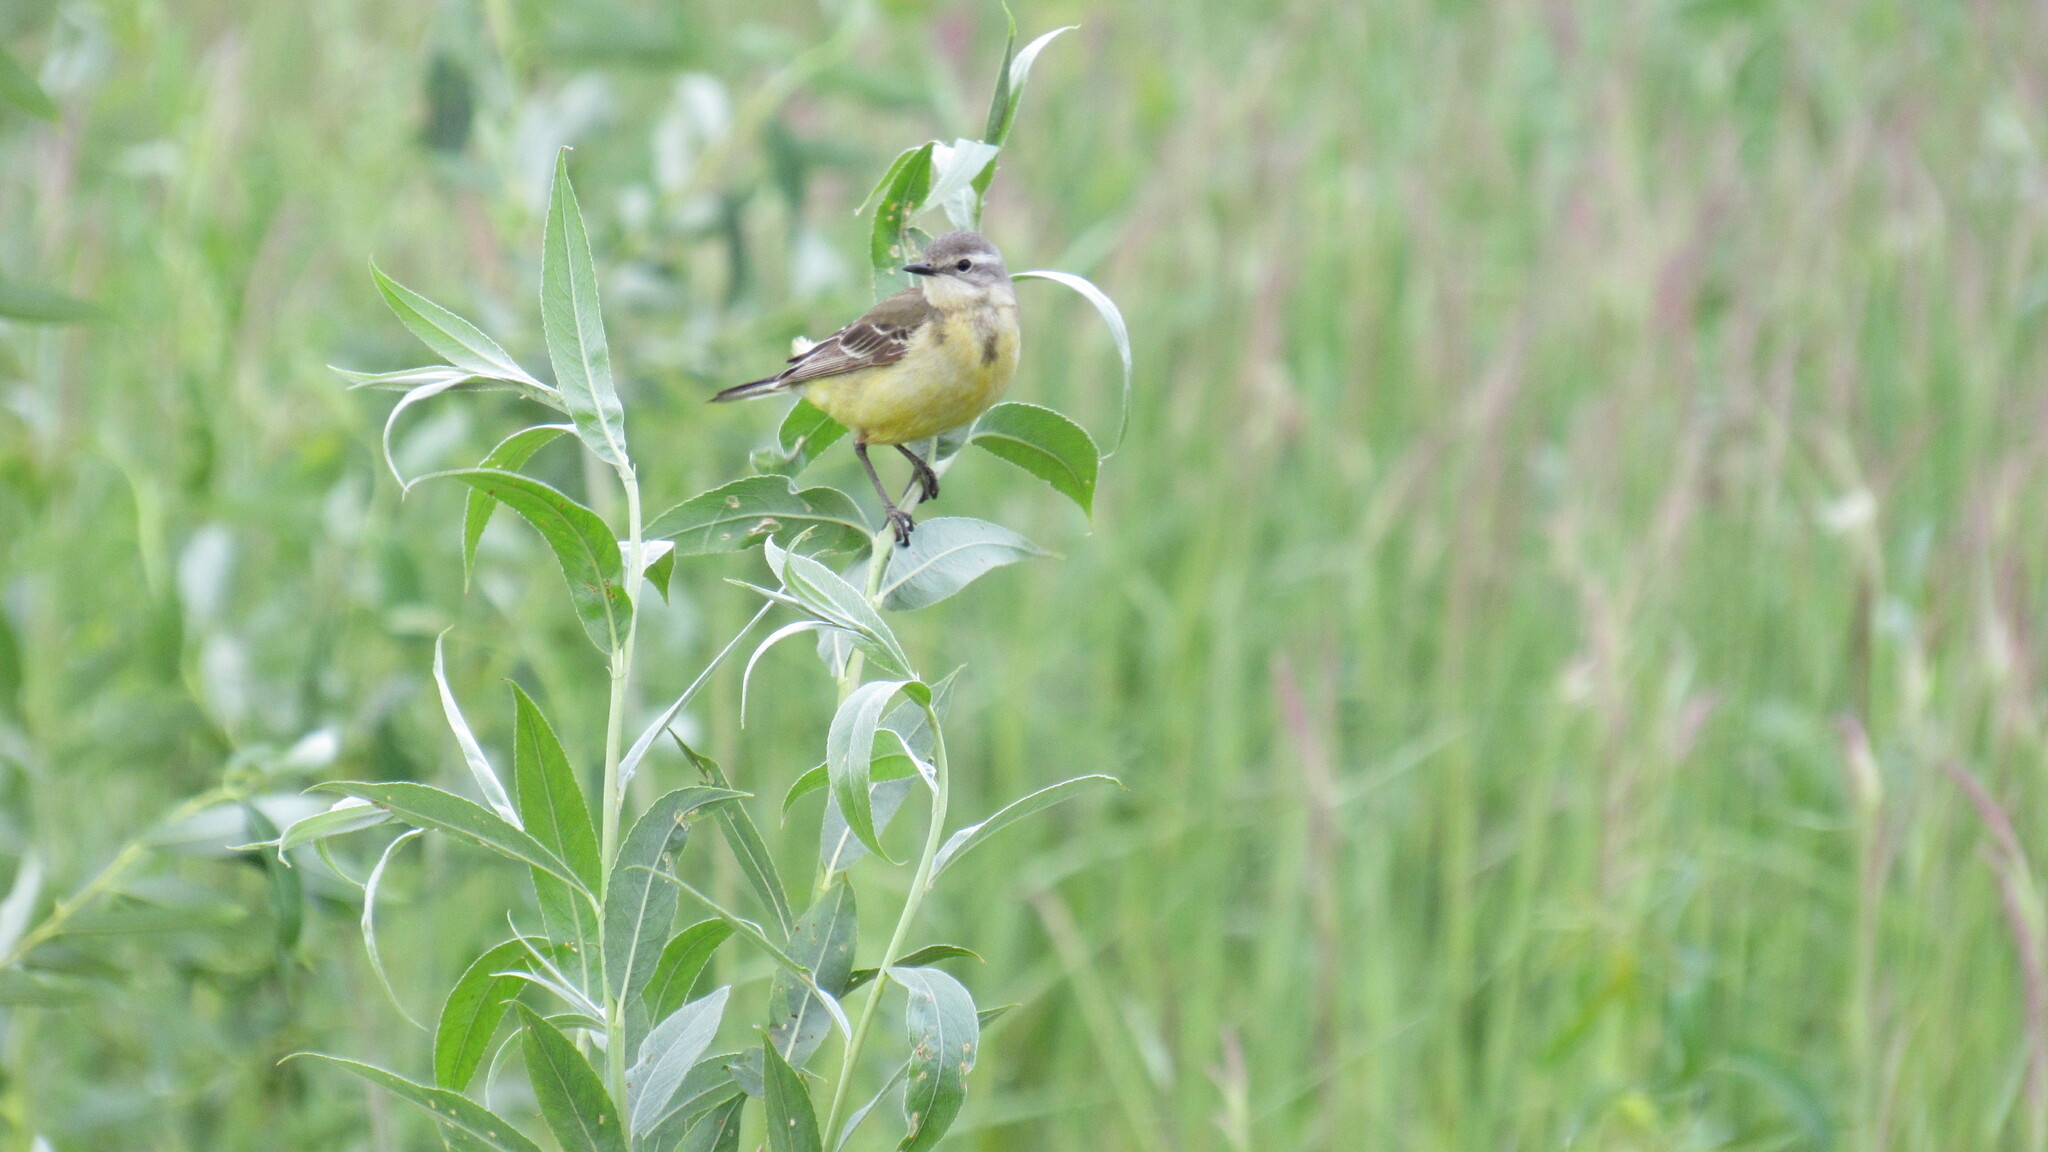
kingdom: Animalia
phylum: Chordata
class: Aves
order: Passeriformes
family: Motacillidae
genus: Motacilla
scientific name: Motacilla flava
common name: Western yellow wagtail
